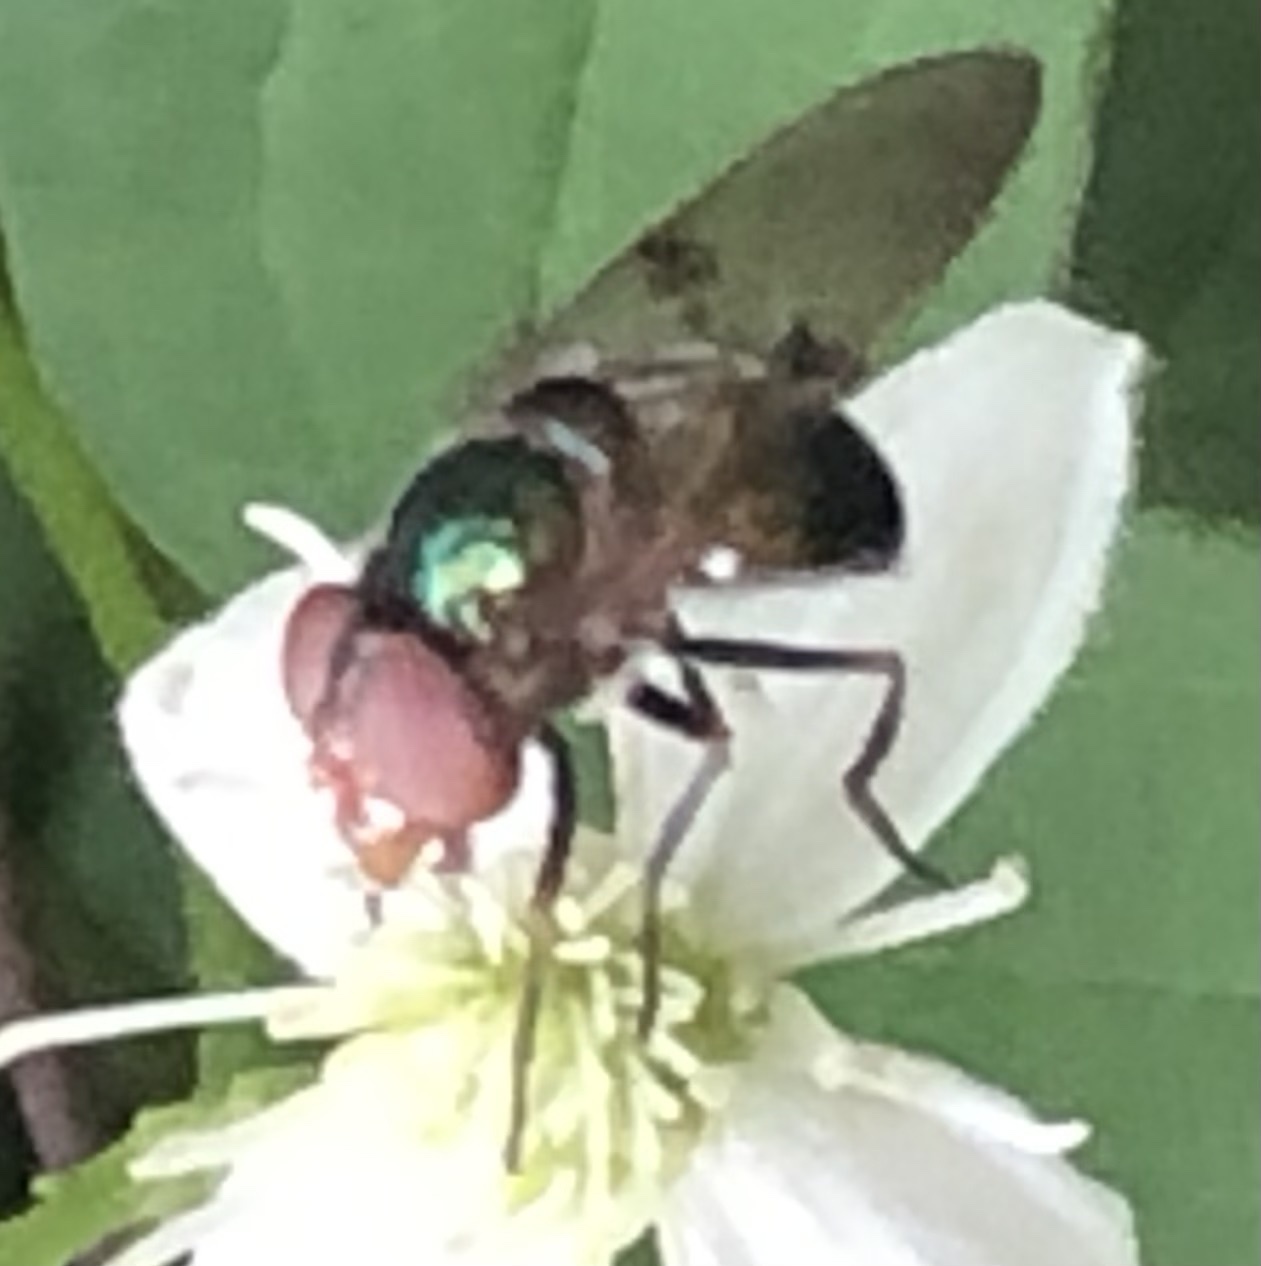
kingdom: Animalia
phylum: Arthropoda
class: Insecta
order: Diptera
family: Syrphidae
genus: Copestylum
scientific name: Copestylum vesicularium
